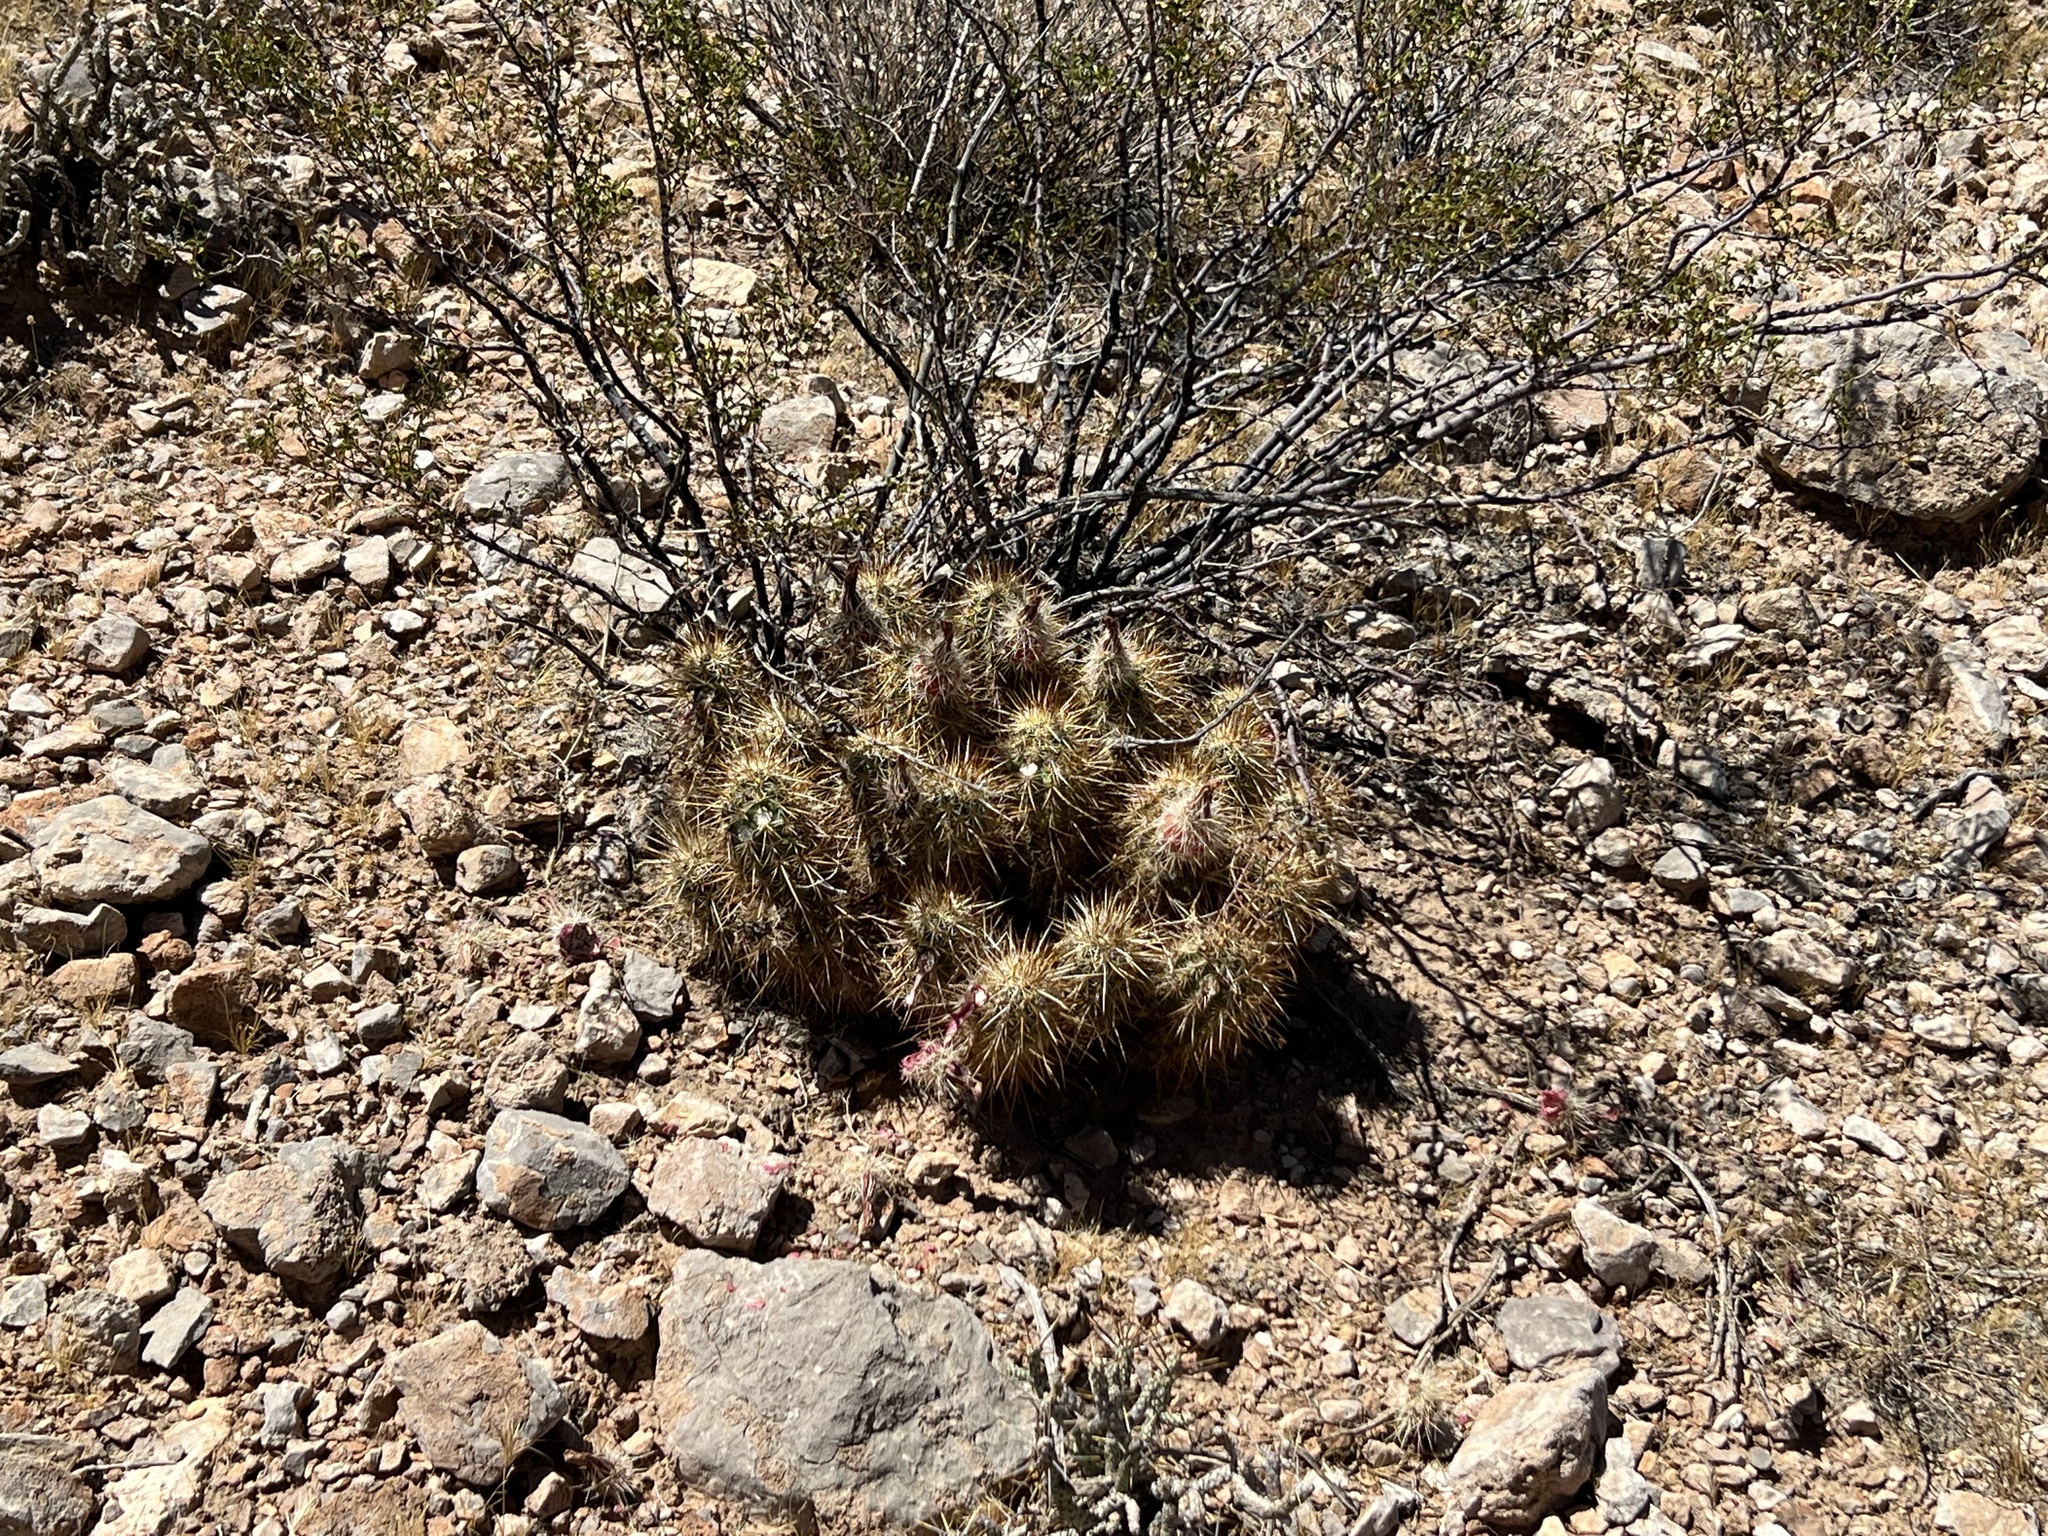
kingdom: Plantae
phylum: Tracheophyta
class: Magnoliopsida
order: Caryophyllales
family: Cactaceae
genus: Echinocereus
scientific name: Echinocereus engelmannii
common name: Engelmann's hedgehog cactus
